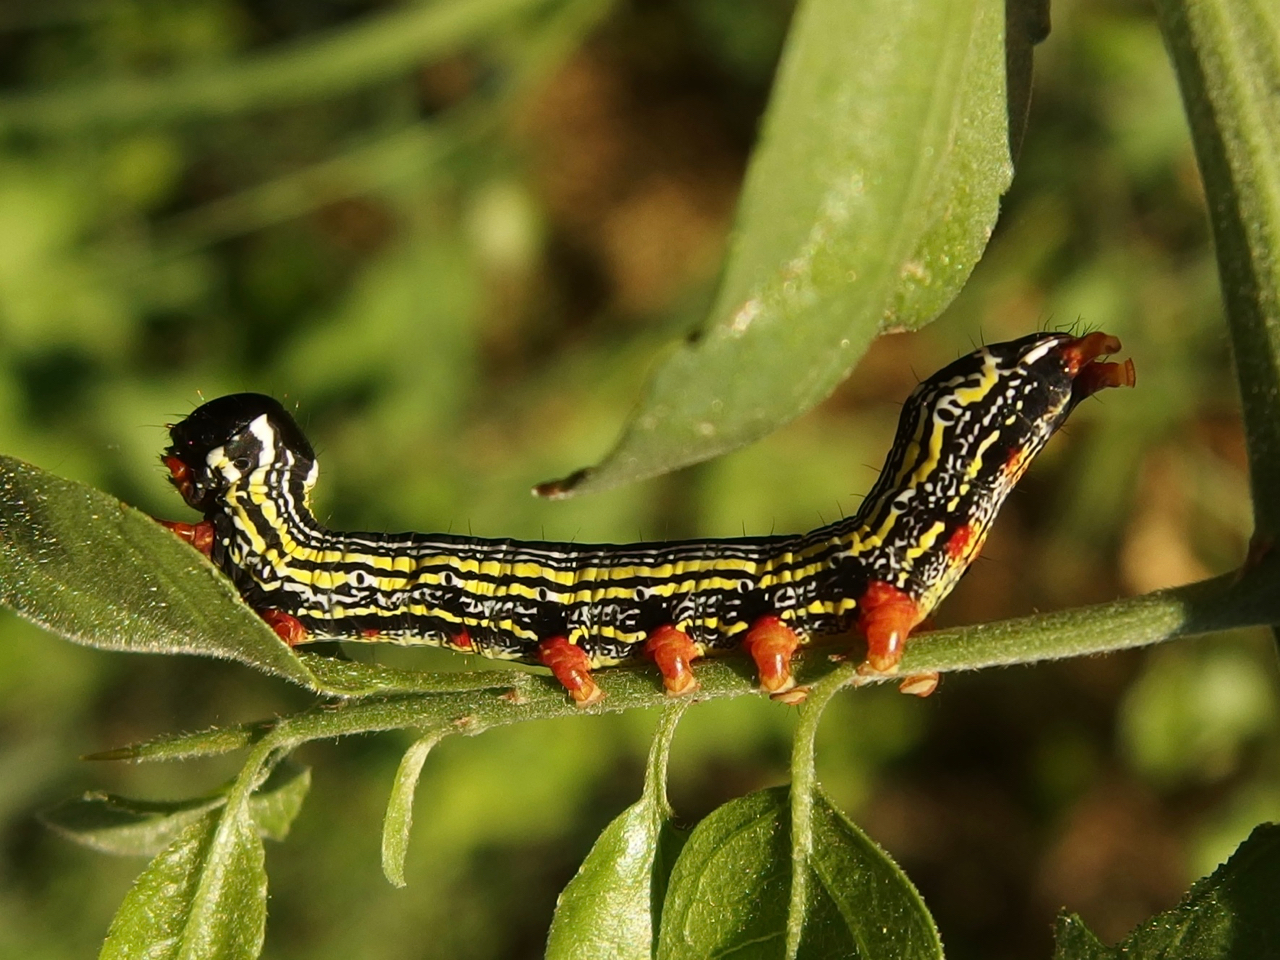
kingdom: Animalia
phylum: Arthropoda
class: Insecta
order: Lepidoptera
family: Notodontidae
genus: Cargida
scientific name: Cargida pyrrha
